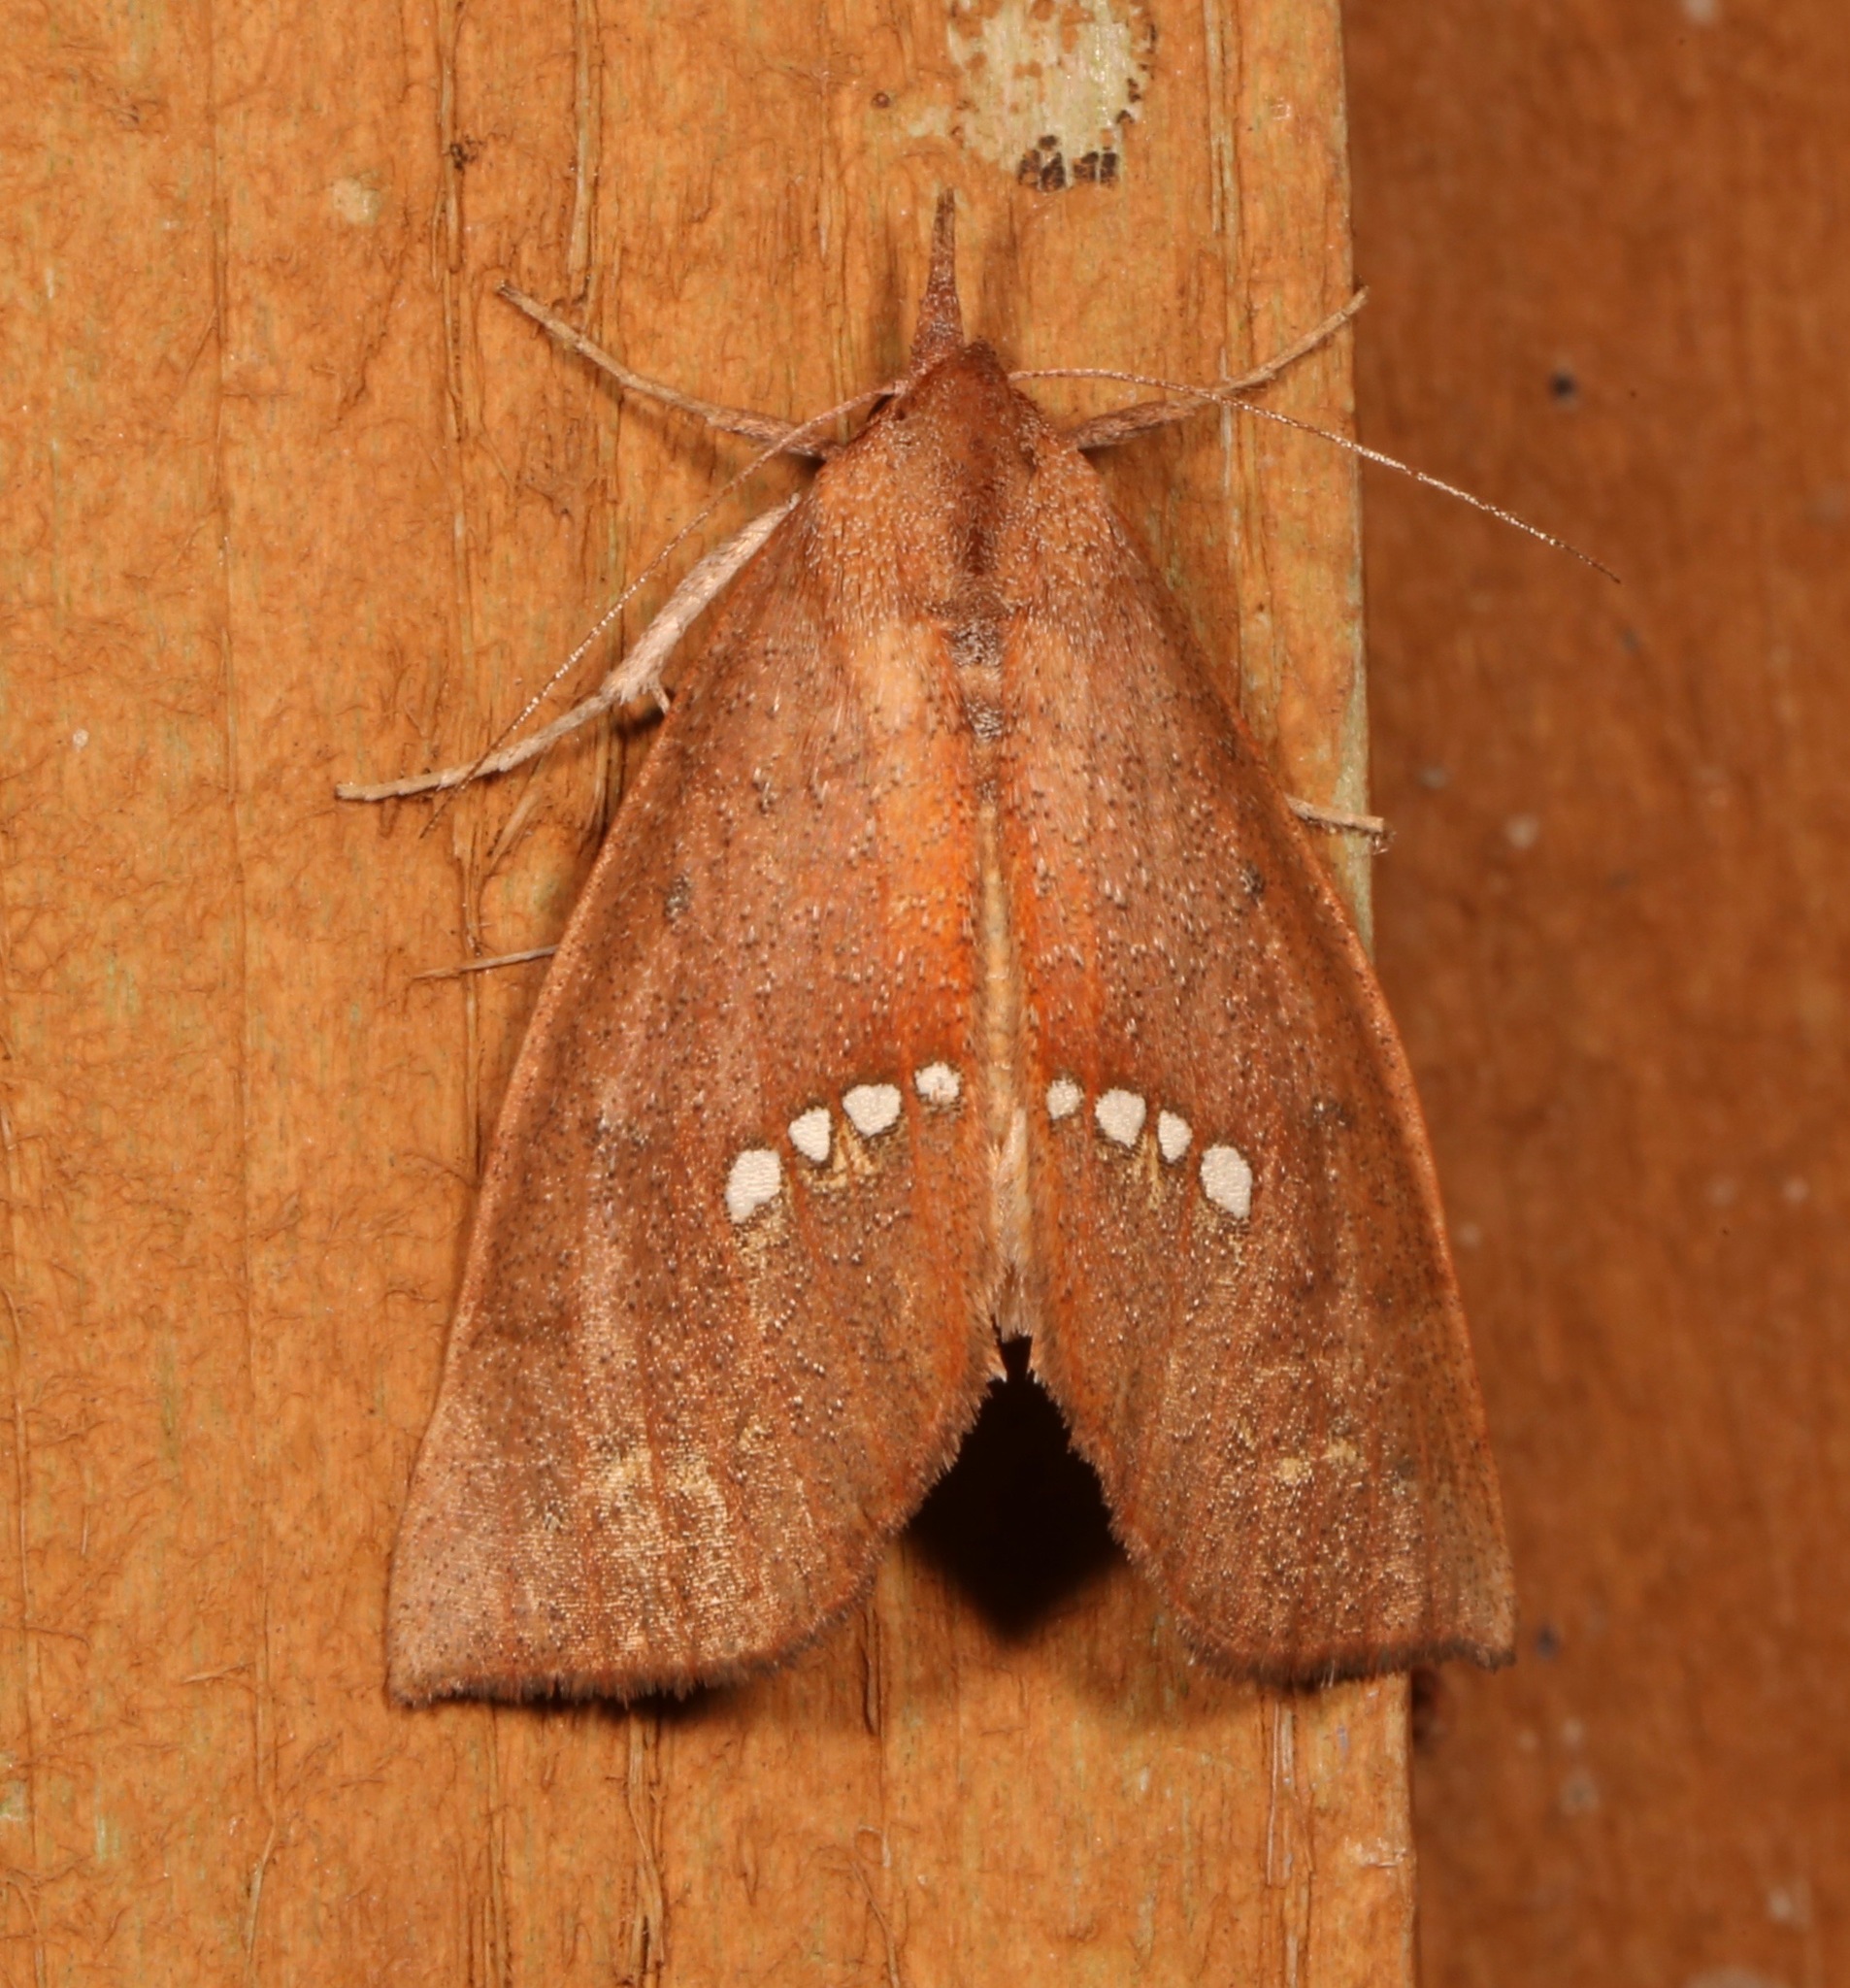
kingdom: Animalia
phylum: Arthropoda
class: Insecta
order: Lepidoptera
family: Erebidae
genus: Hypsoropha
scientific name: Hypsoropha monilis
